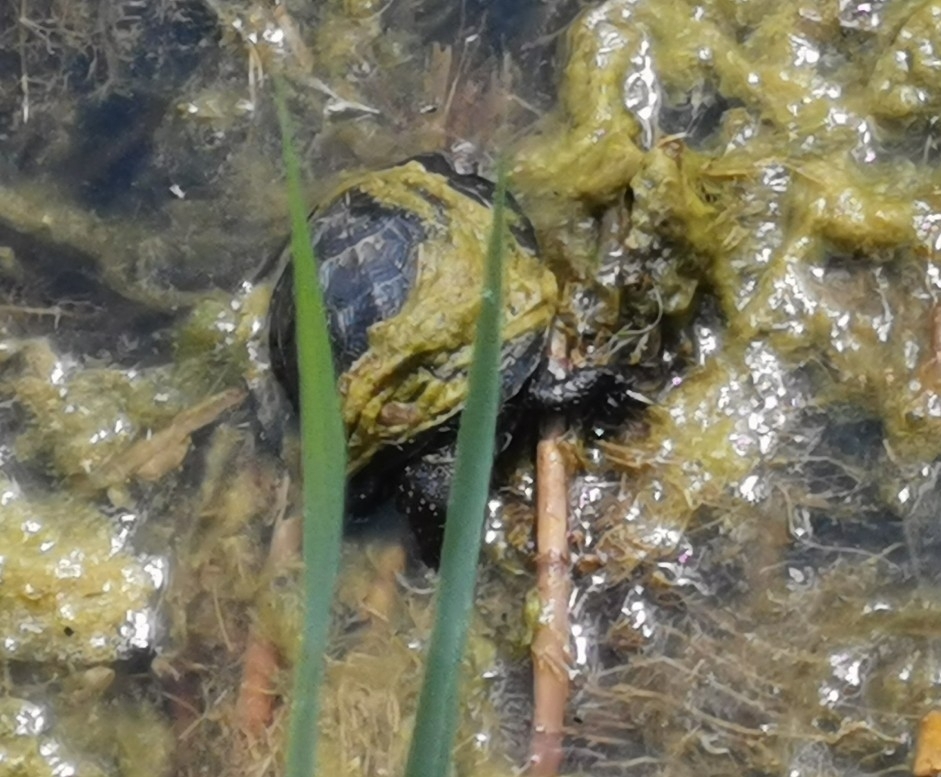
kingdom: Animalia
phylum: Chordata
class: Testudines
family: Emydidae
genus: Emys
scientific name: Emys orbicularis
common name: European pond turtle
